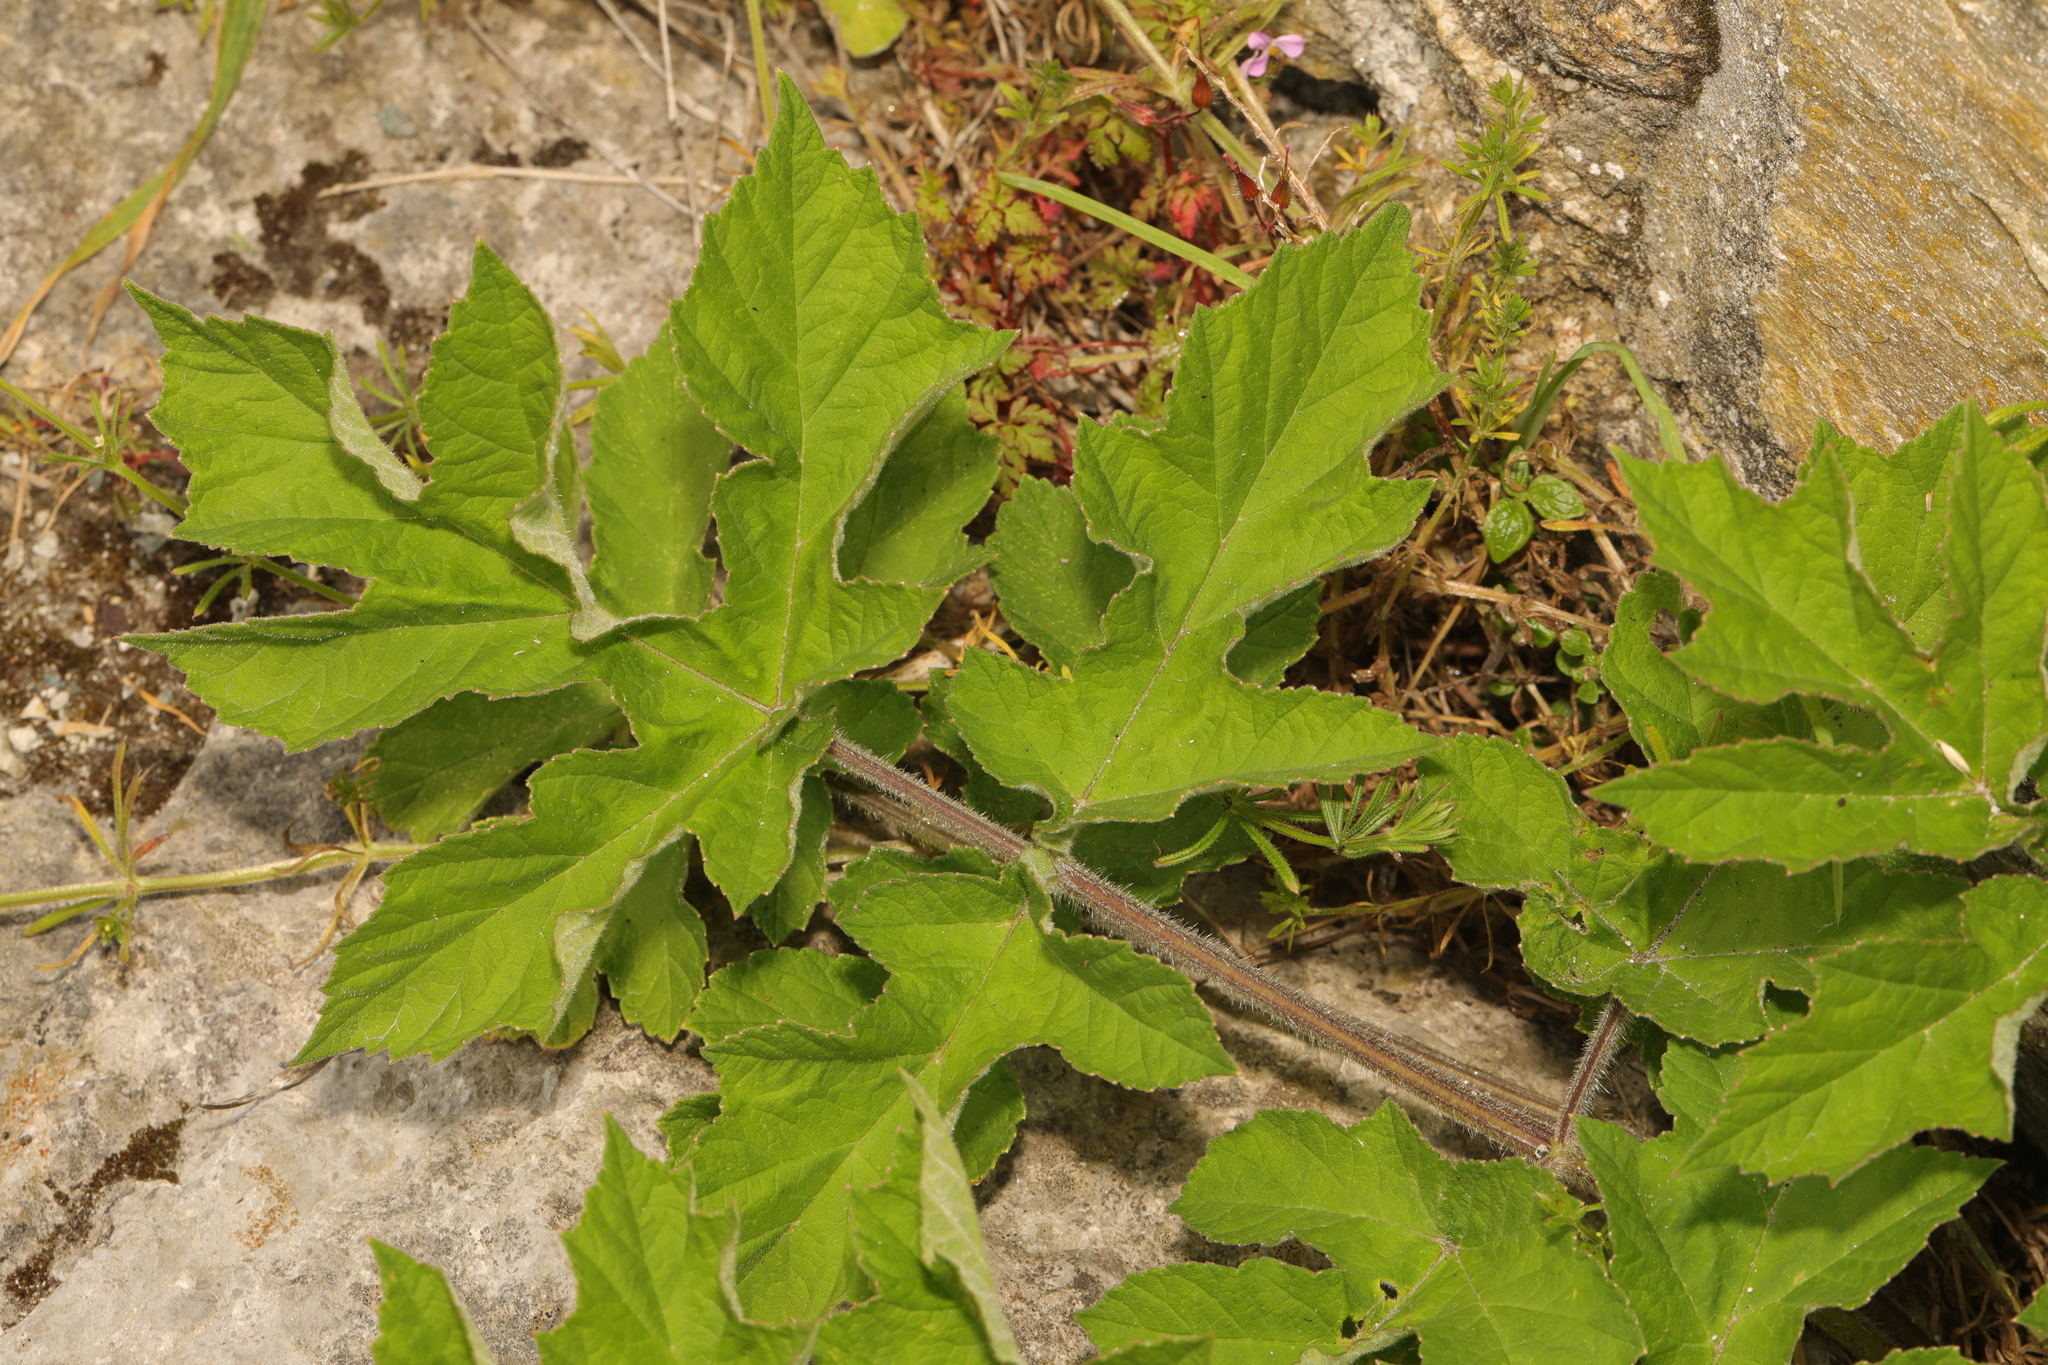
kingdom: Plantae
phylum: Tracheophyta
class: Magnoliopsida
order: Apiales
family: Apiaceae
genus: Heracleum
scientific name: Heracleum sphondylium
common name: Hogweed
